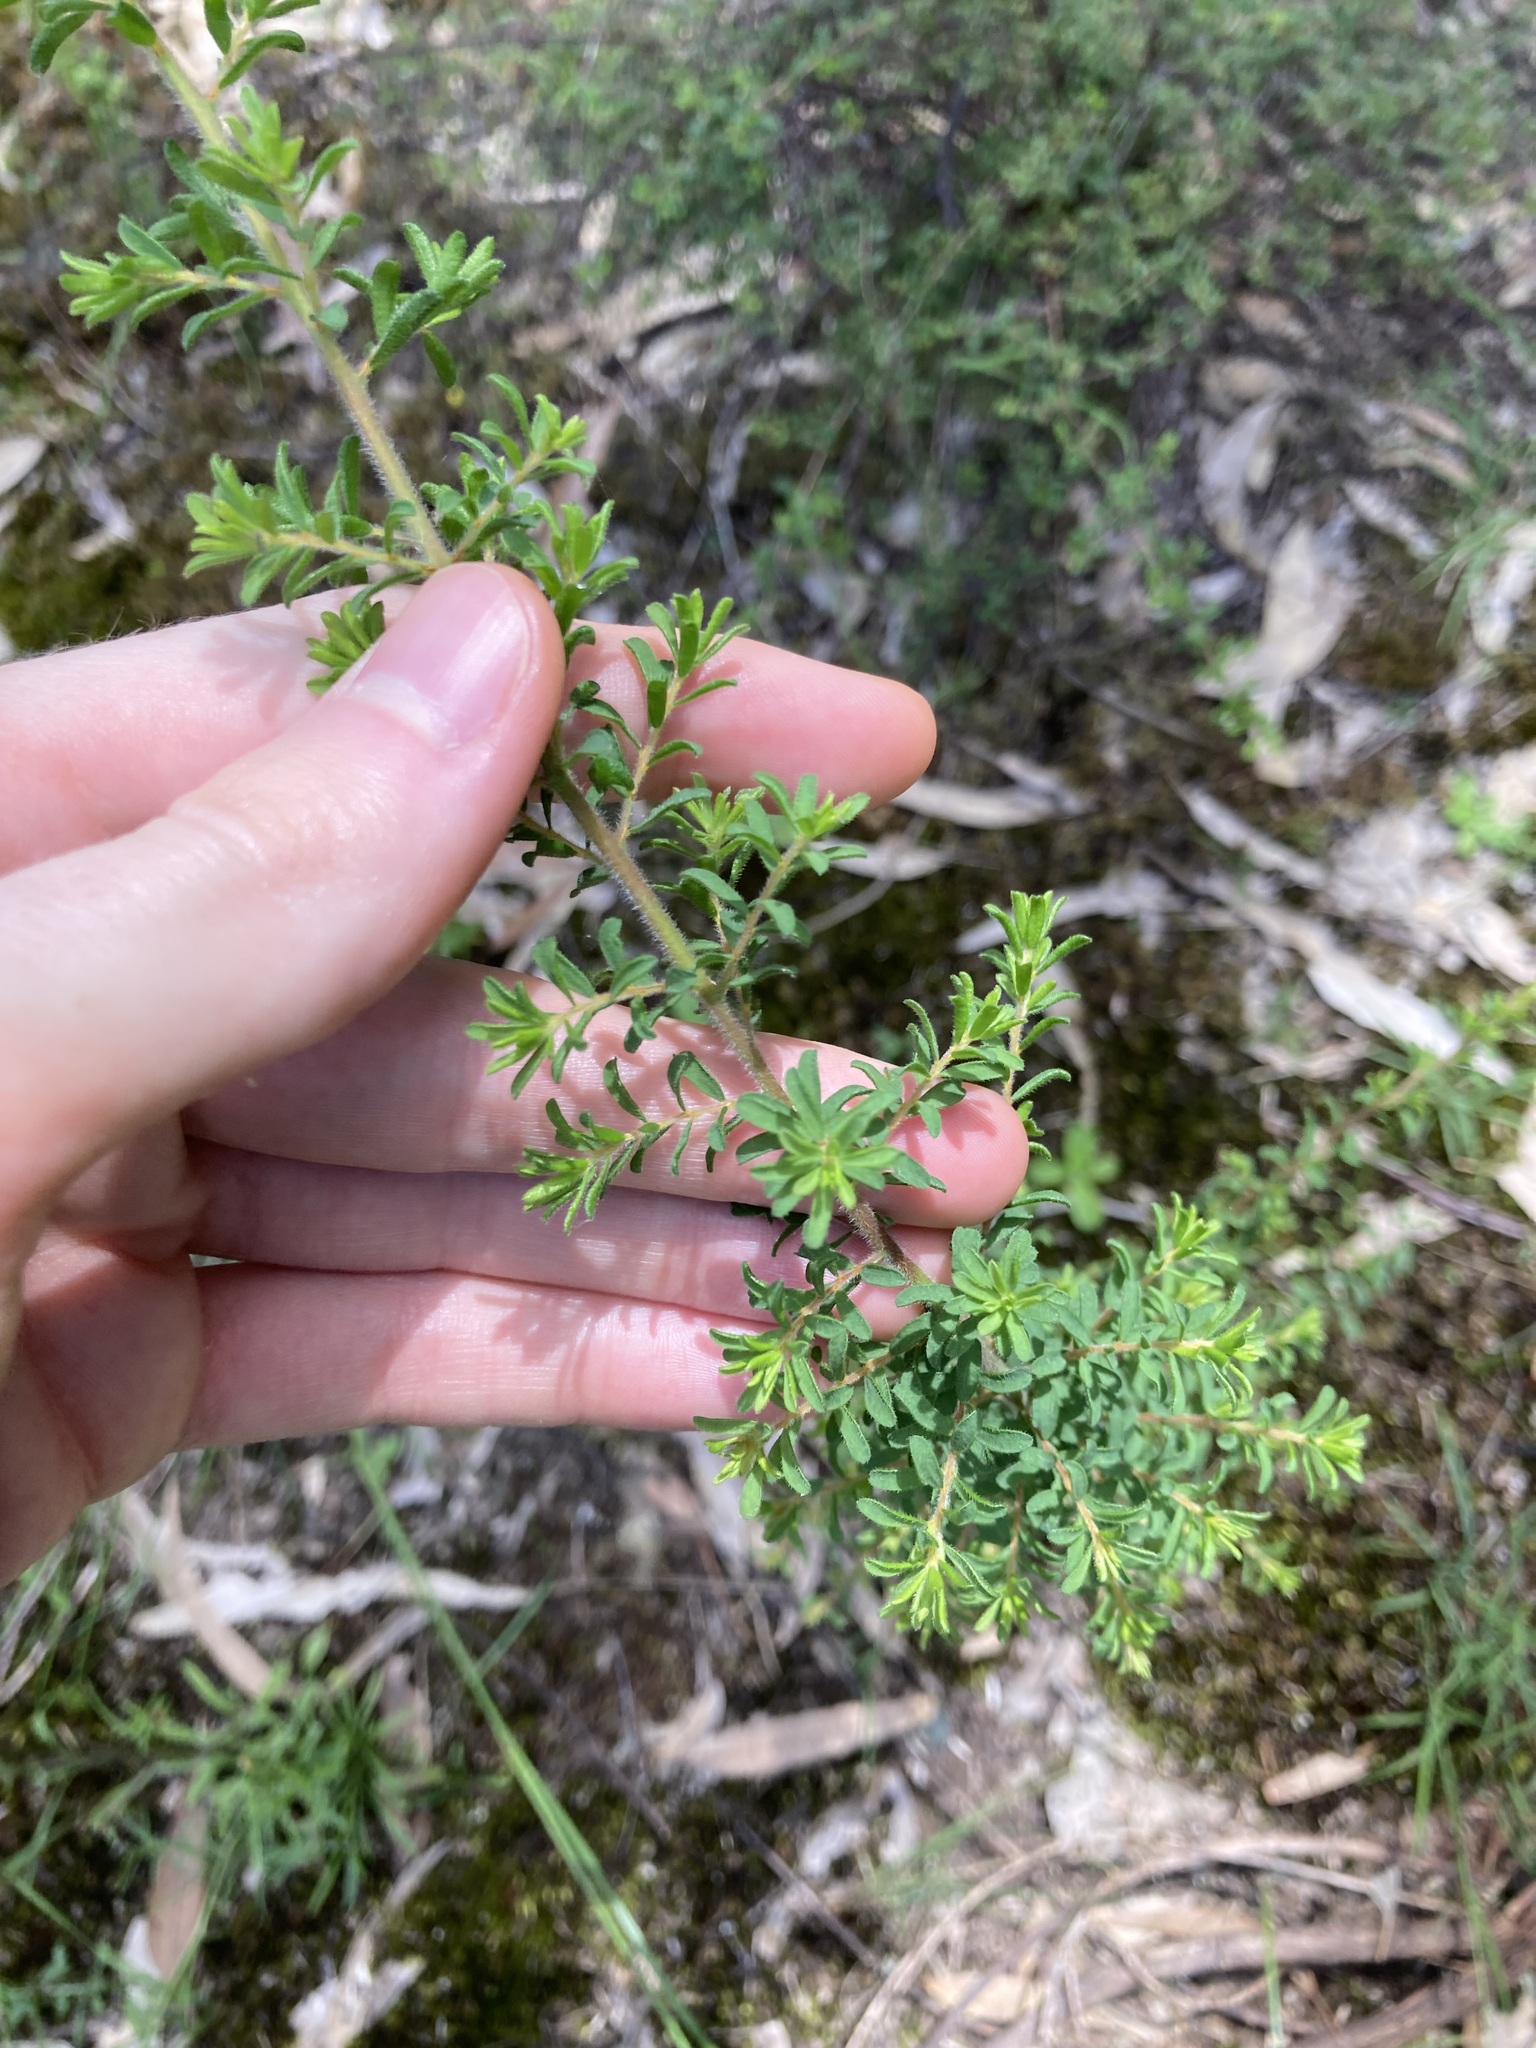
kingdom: Plantae
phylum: Tracheophyta
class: Magnoliopsida
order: Fabales
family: Fabaceae
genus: Pultenaea
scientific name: Pultenaea villosa
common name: Bronze bush-pea
